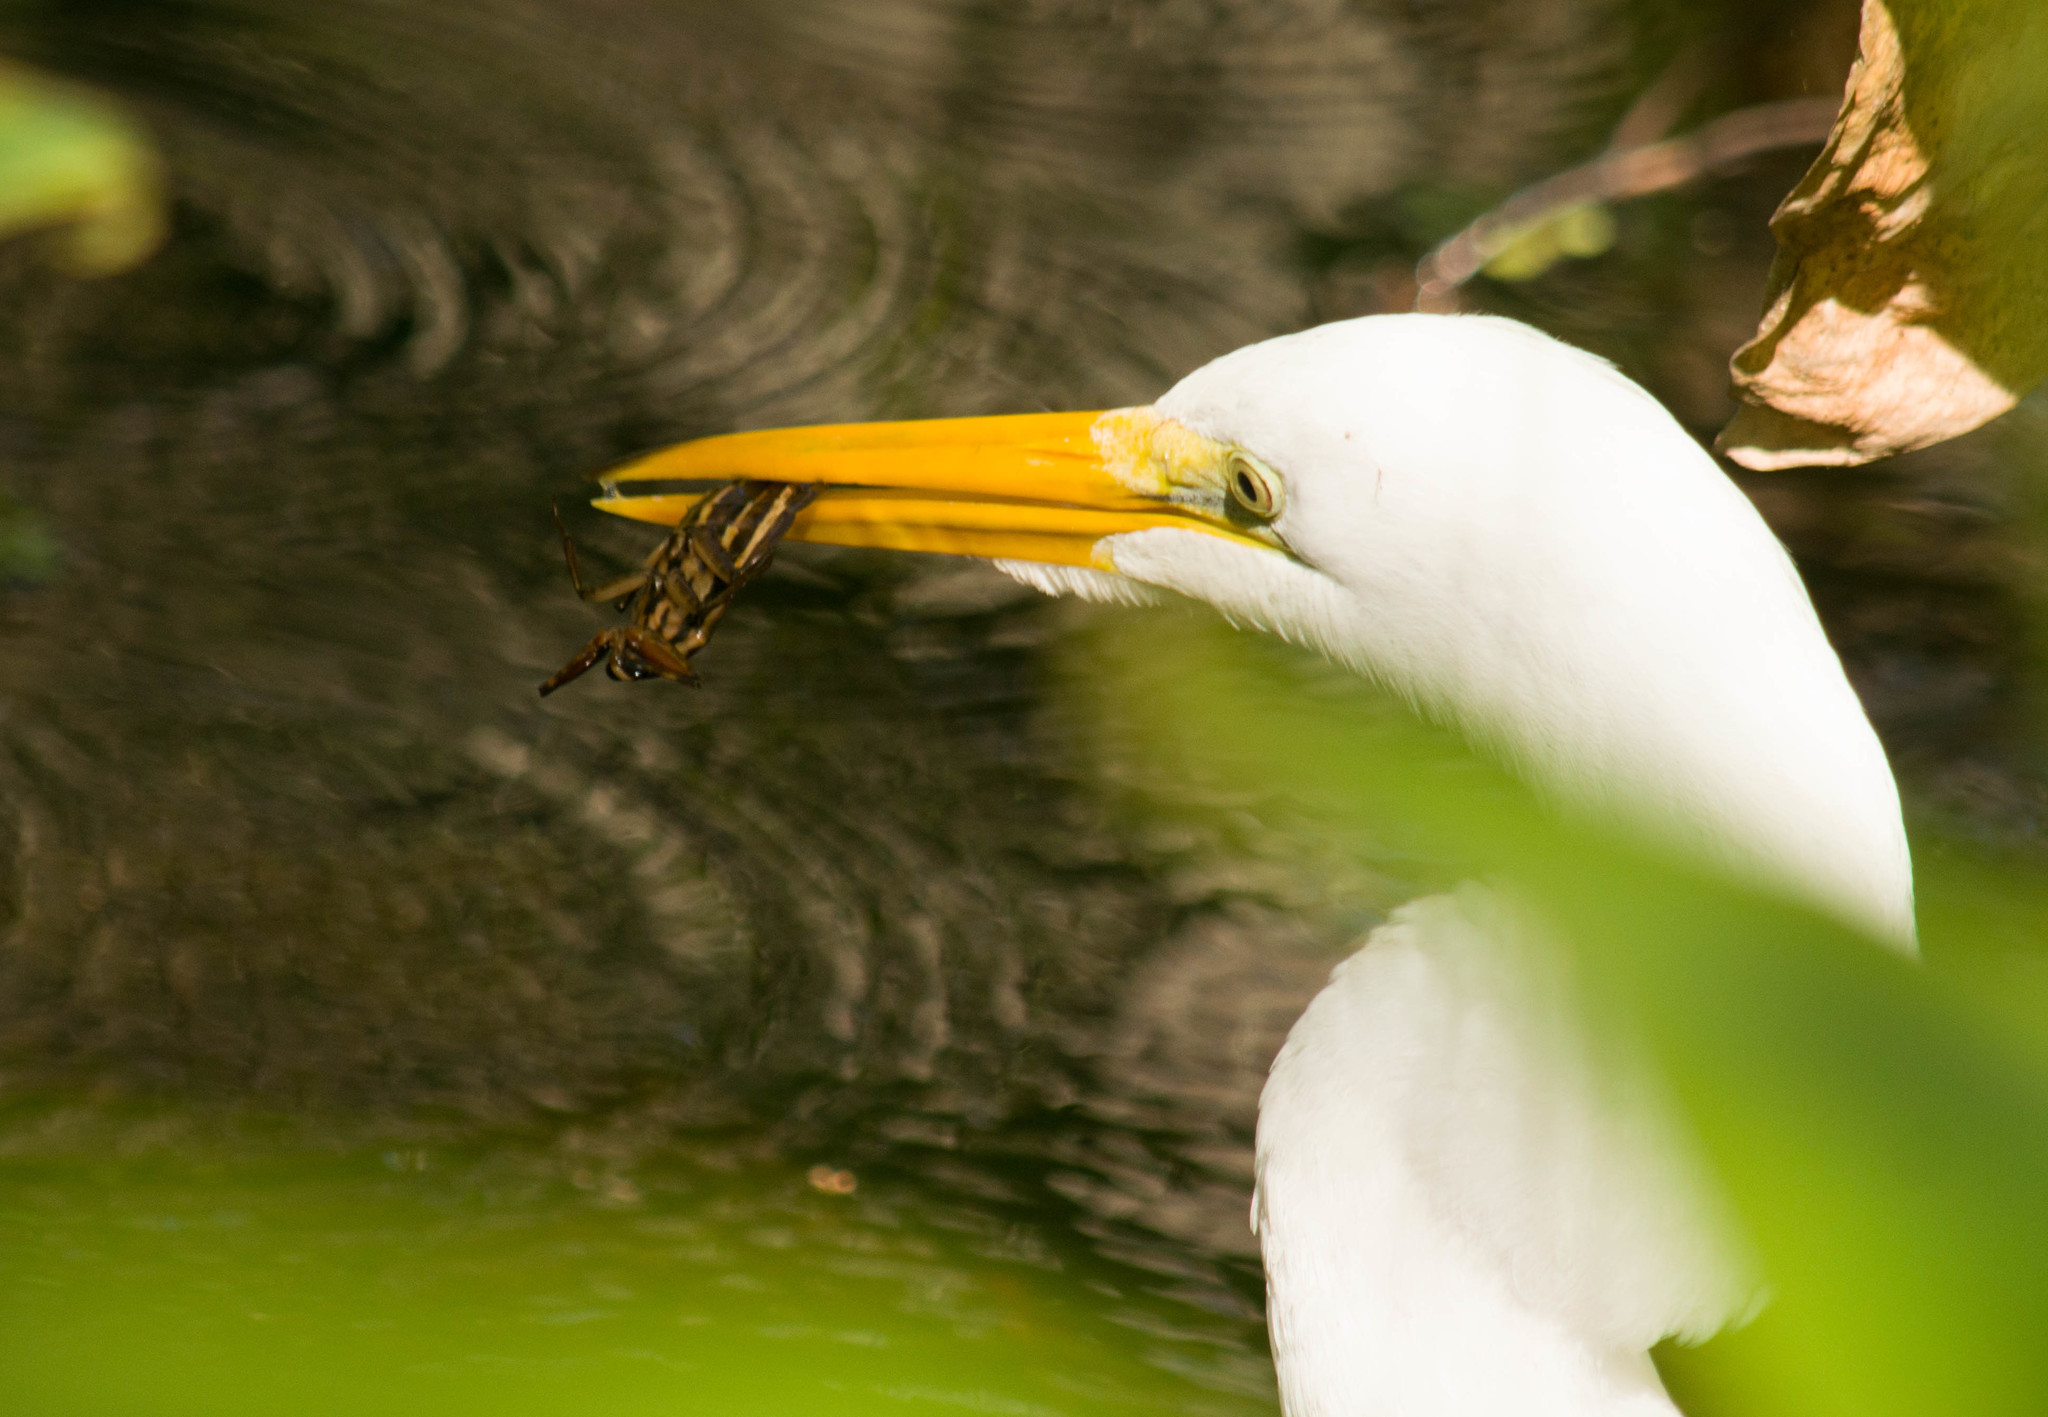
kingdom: Animalia
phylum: Chordata
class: Aves
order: Pelecaniformes
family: Ardeidae
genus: Ardea
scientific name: Ardea alba
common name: Great egret
